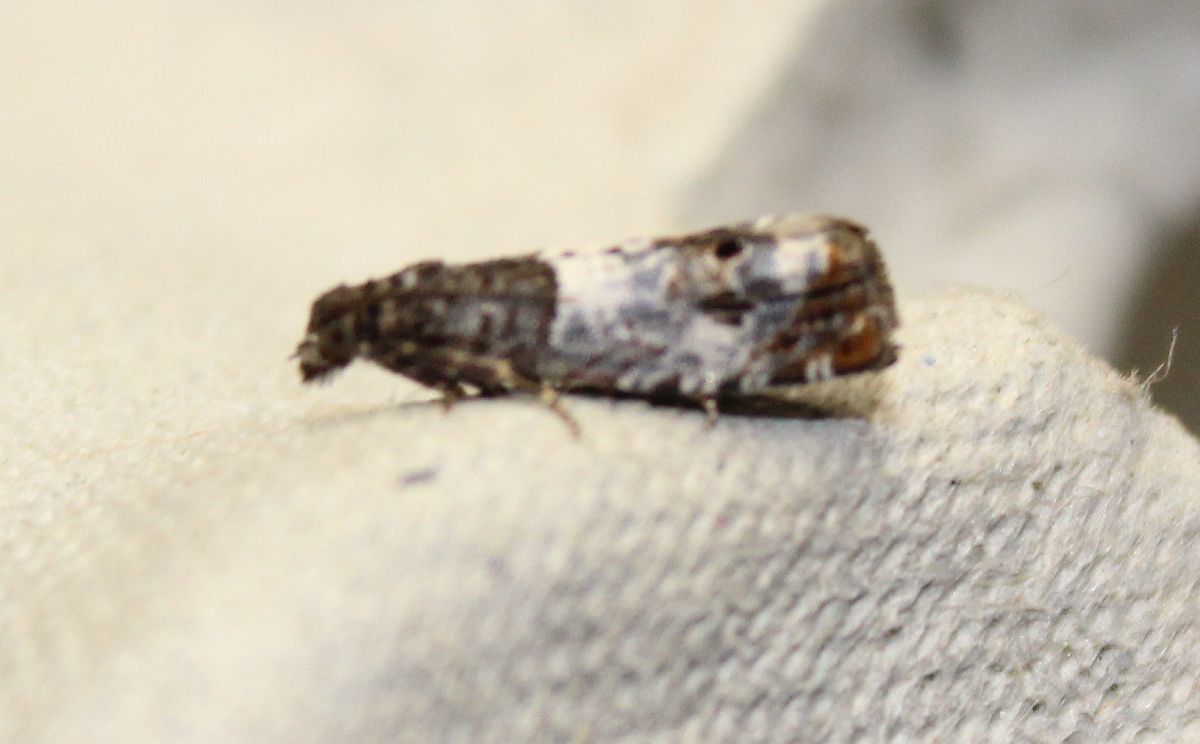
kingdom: Animalia
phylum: Arthropoda
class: Insecta
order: Lepidoptera
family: Tortricidae
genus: Notocelia
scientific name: Notocelia trimaculana
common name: Triple-blotched bell
